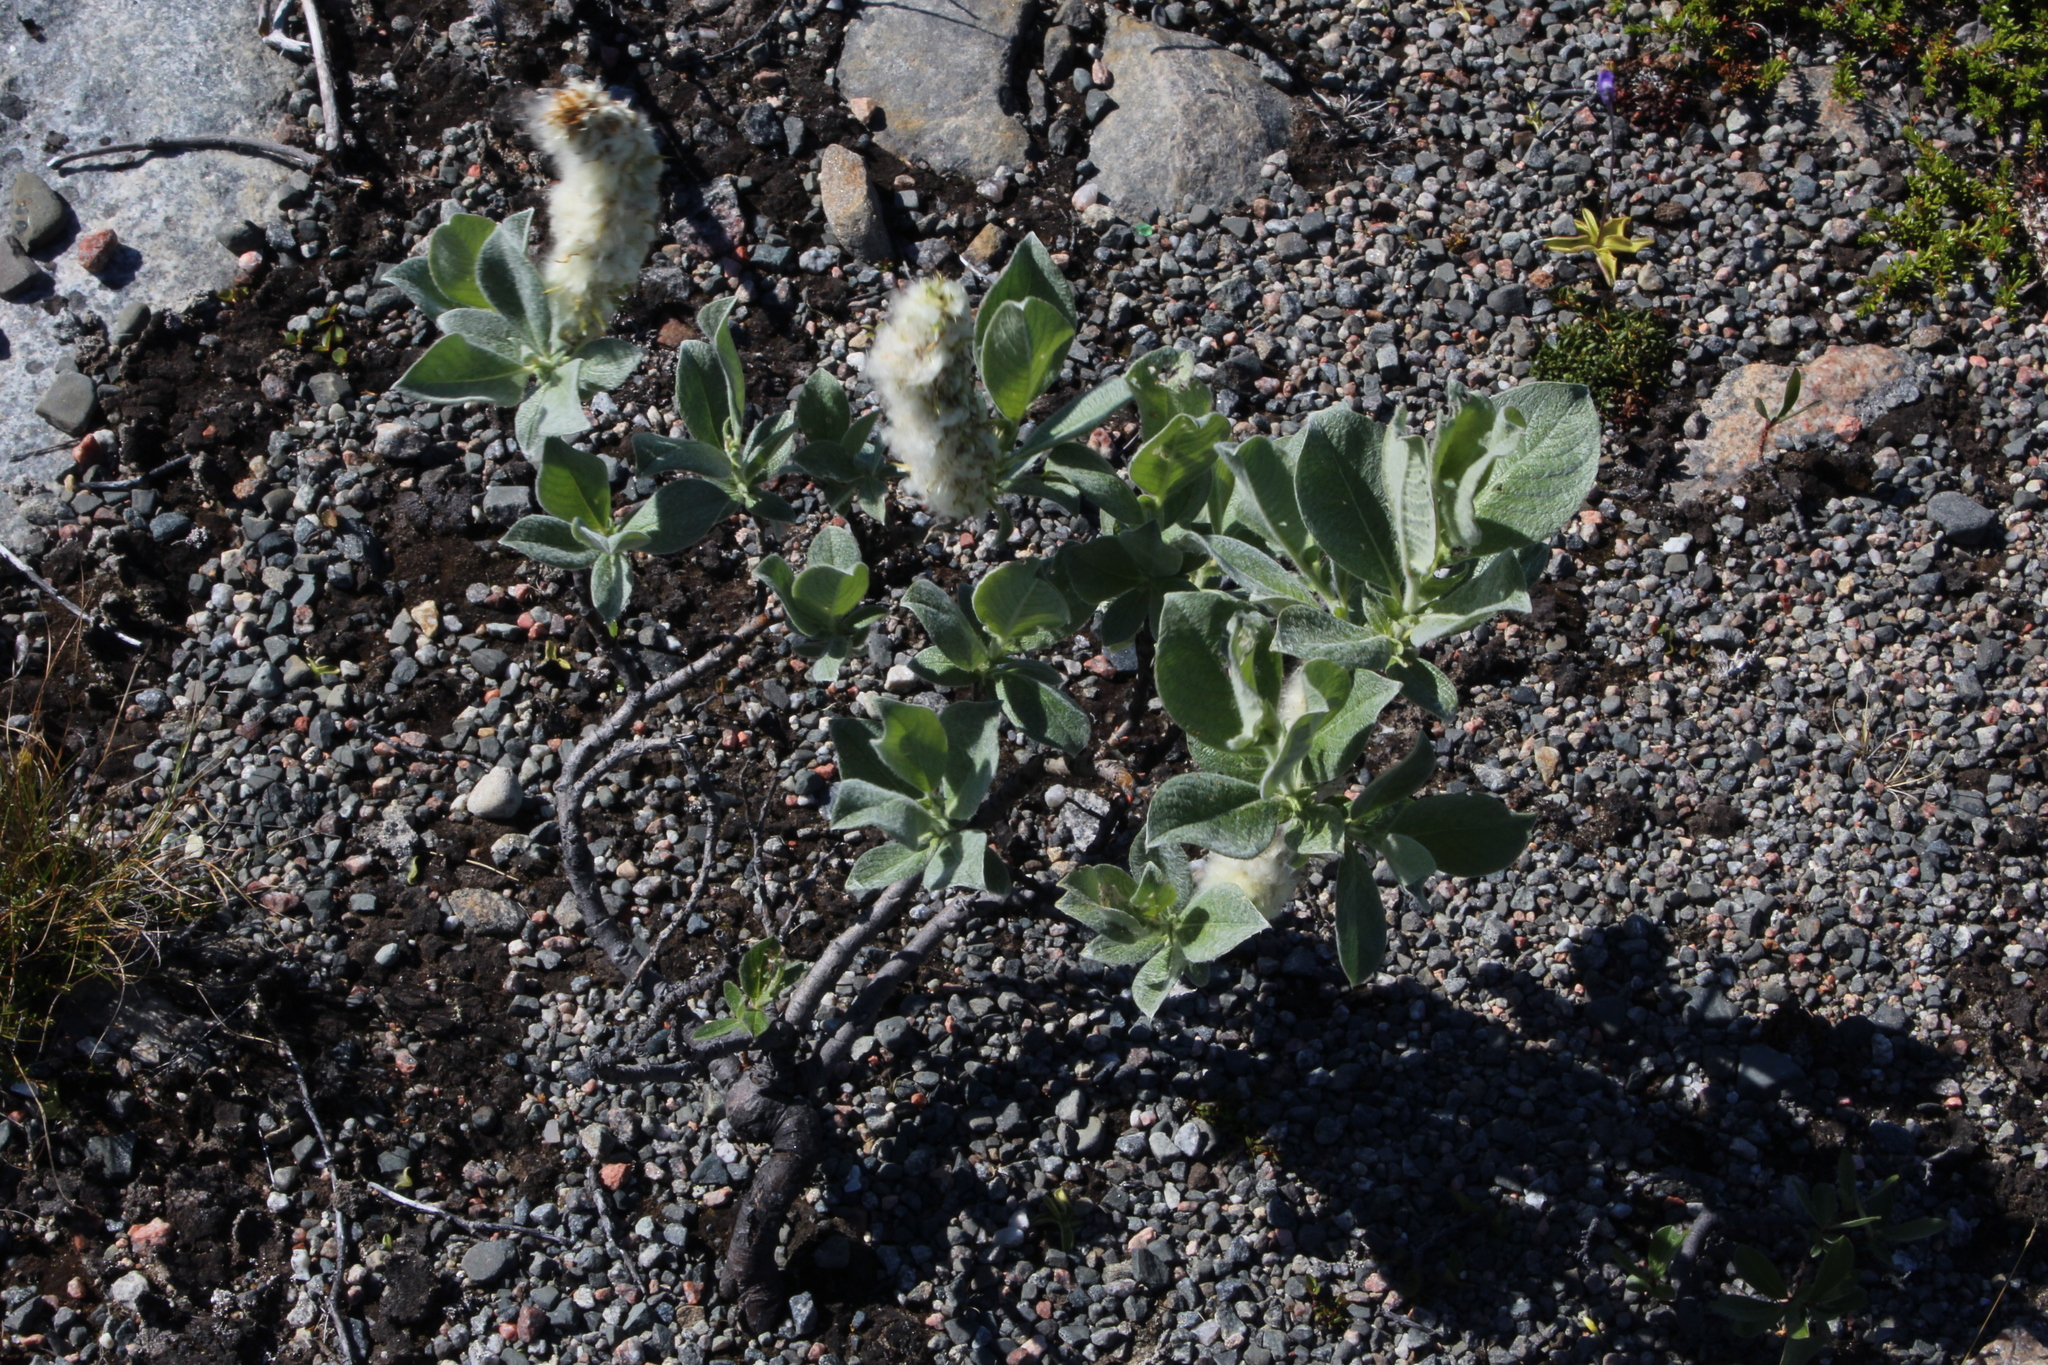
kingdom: Plantae
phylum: Tracheophyta
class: Magnoliopsida
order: Malpighiales
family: Salicaceae
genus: Salix
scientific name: Salix lanata
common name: Woolly willow
